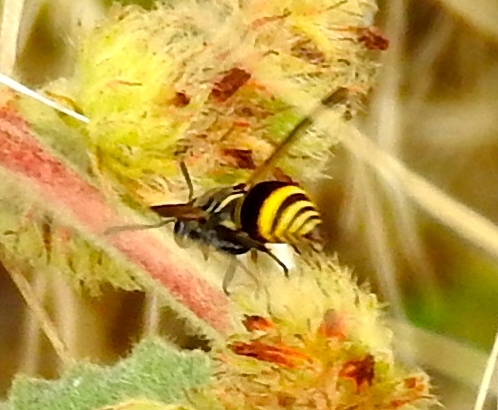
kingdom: Animalia
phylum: Arthropoda
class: Insecta
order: Hymenoptera
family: Eumenidae
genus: Pachodynerus
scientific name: Pachodynerus
